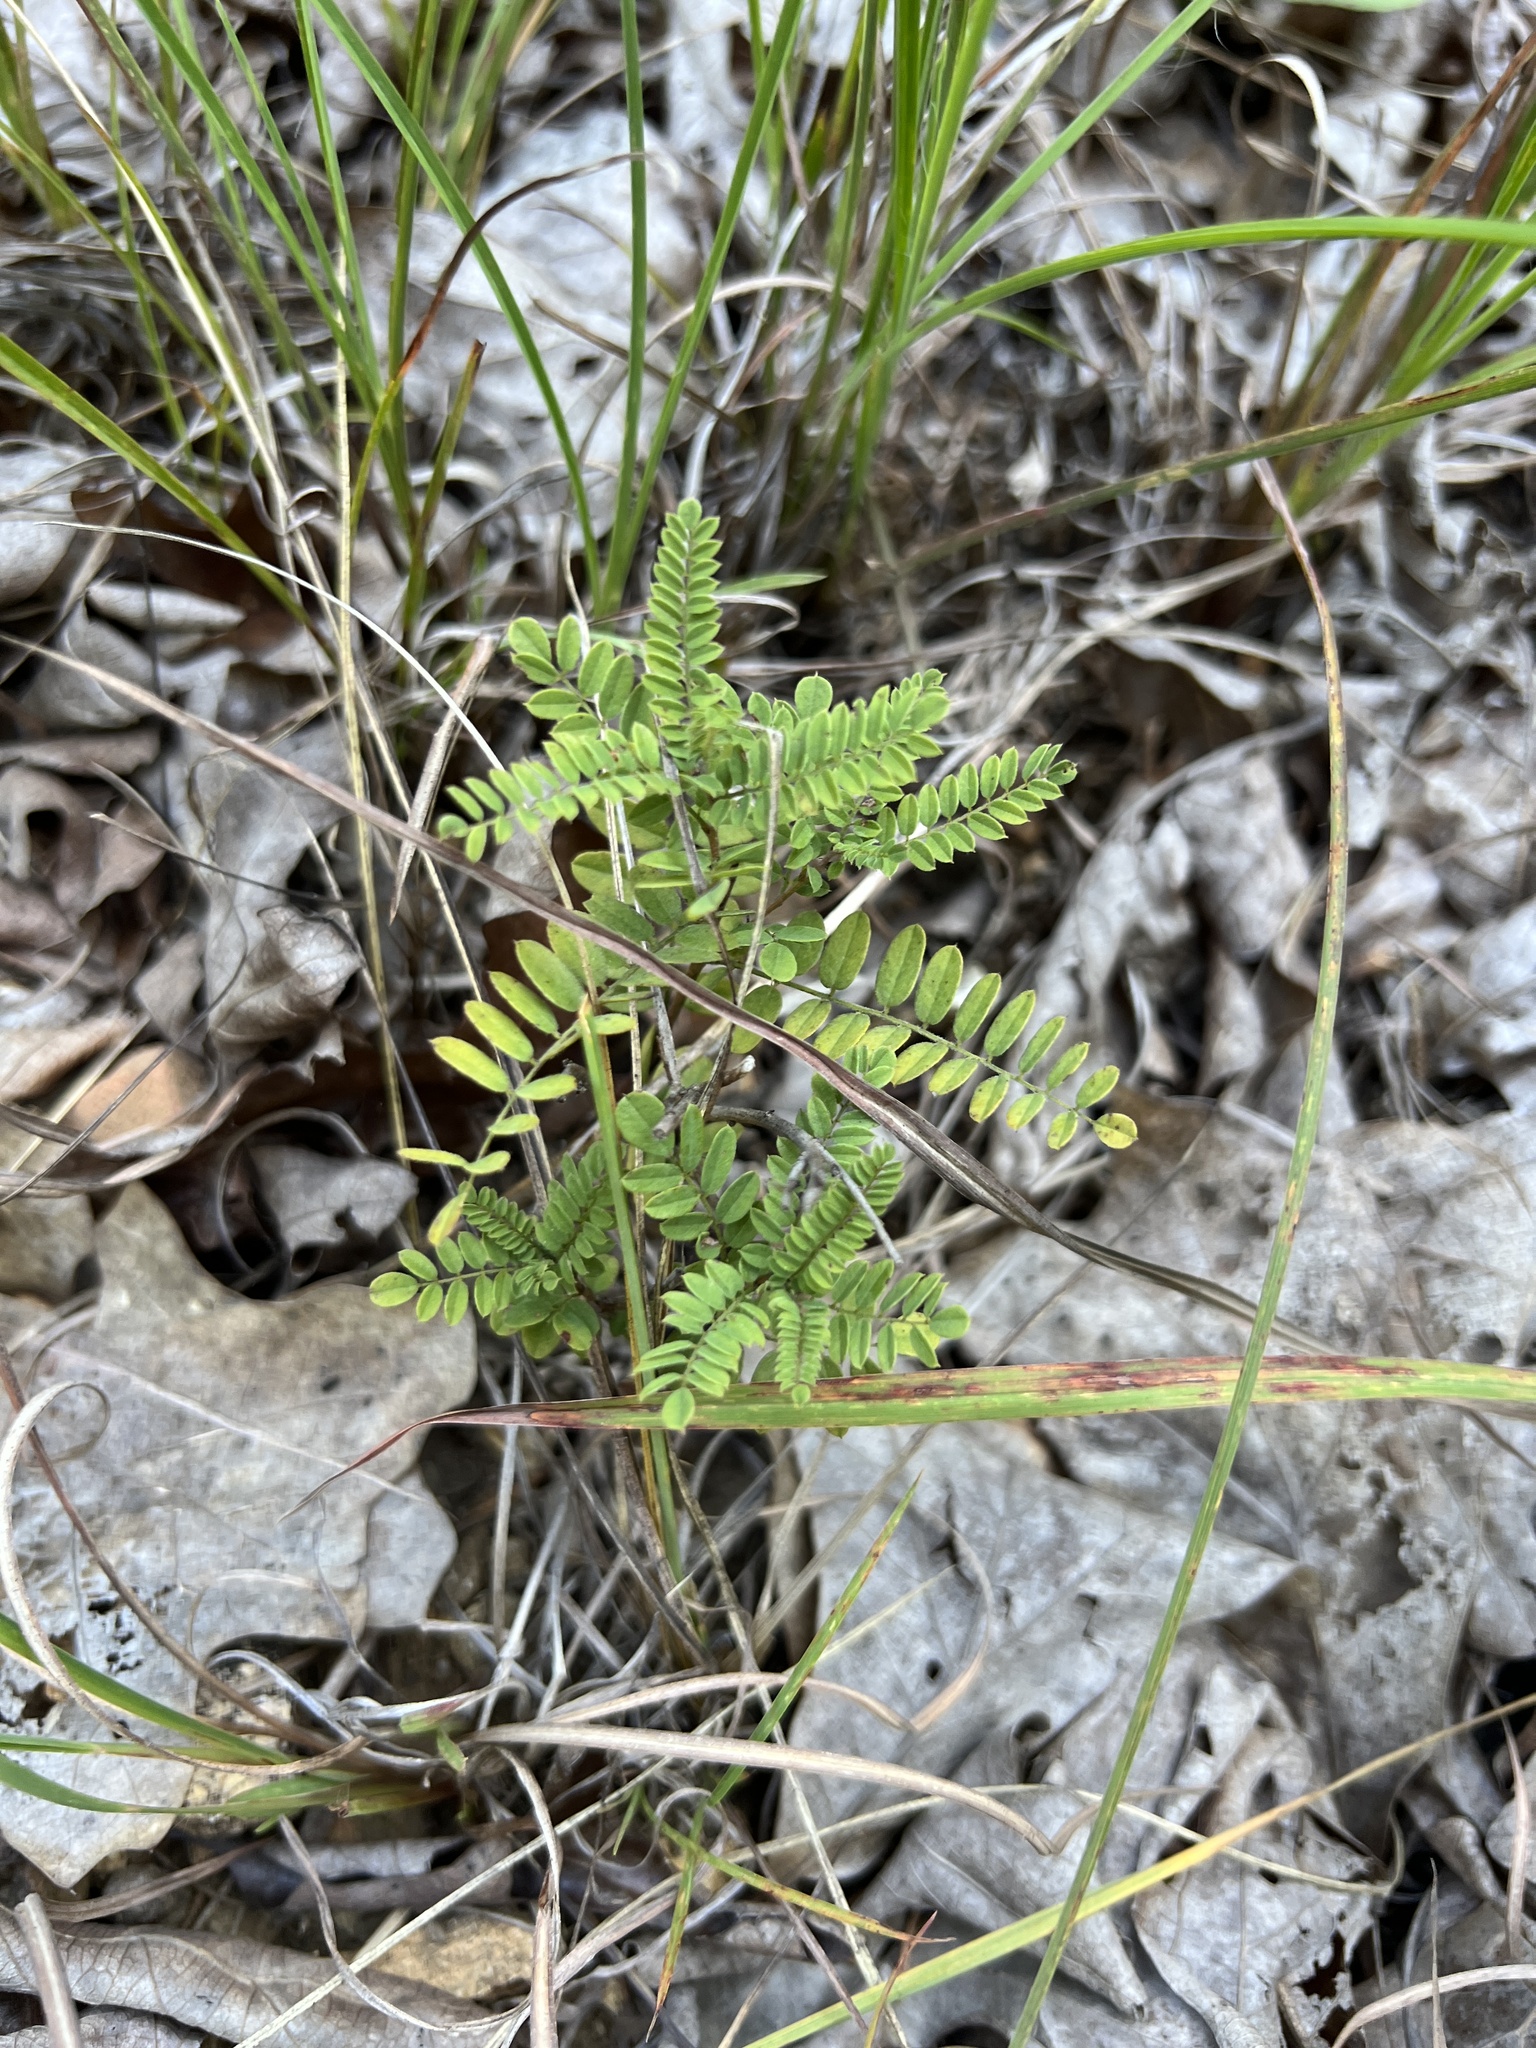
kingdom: Plantae
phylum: Tracheophyta
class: Magnoliopsida
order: Fabales
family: Fabaceae
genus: Amorpha
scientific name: Amorpha canescens
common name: Leadplant
